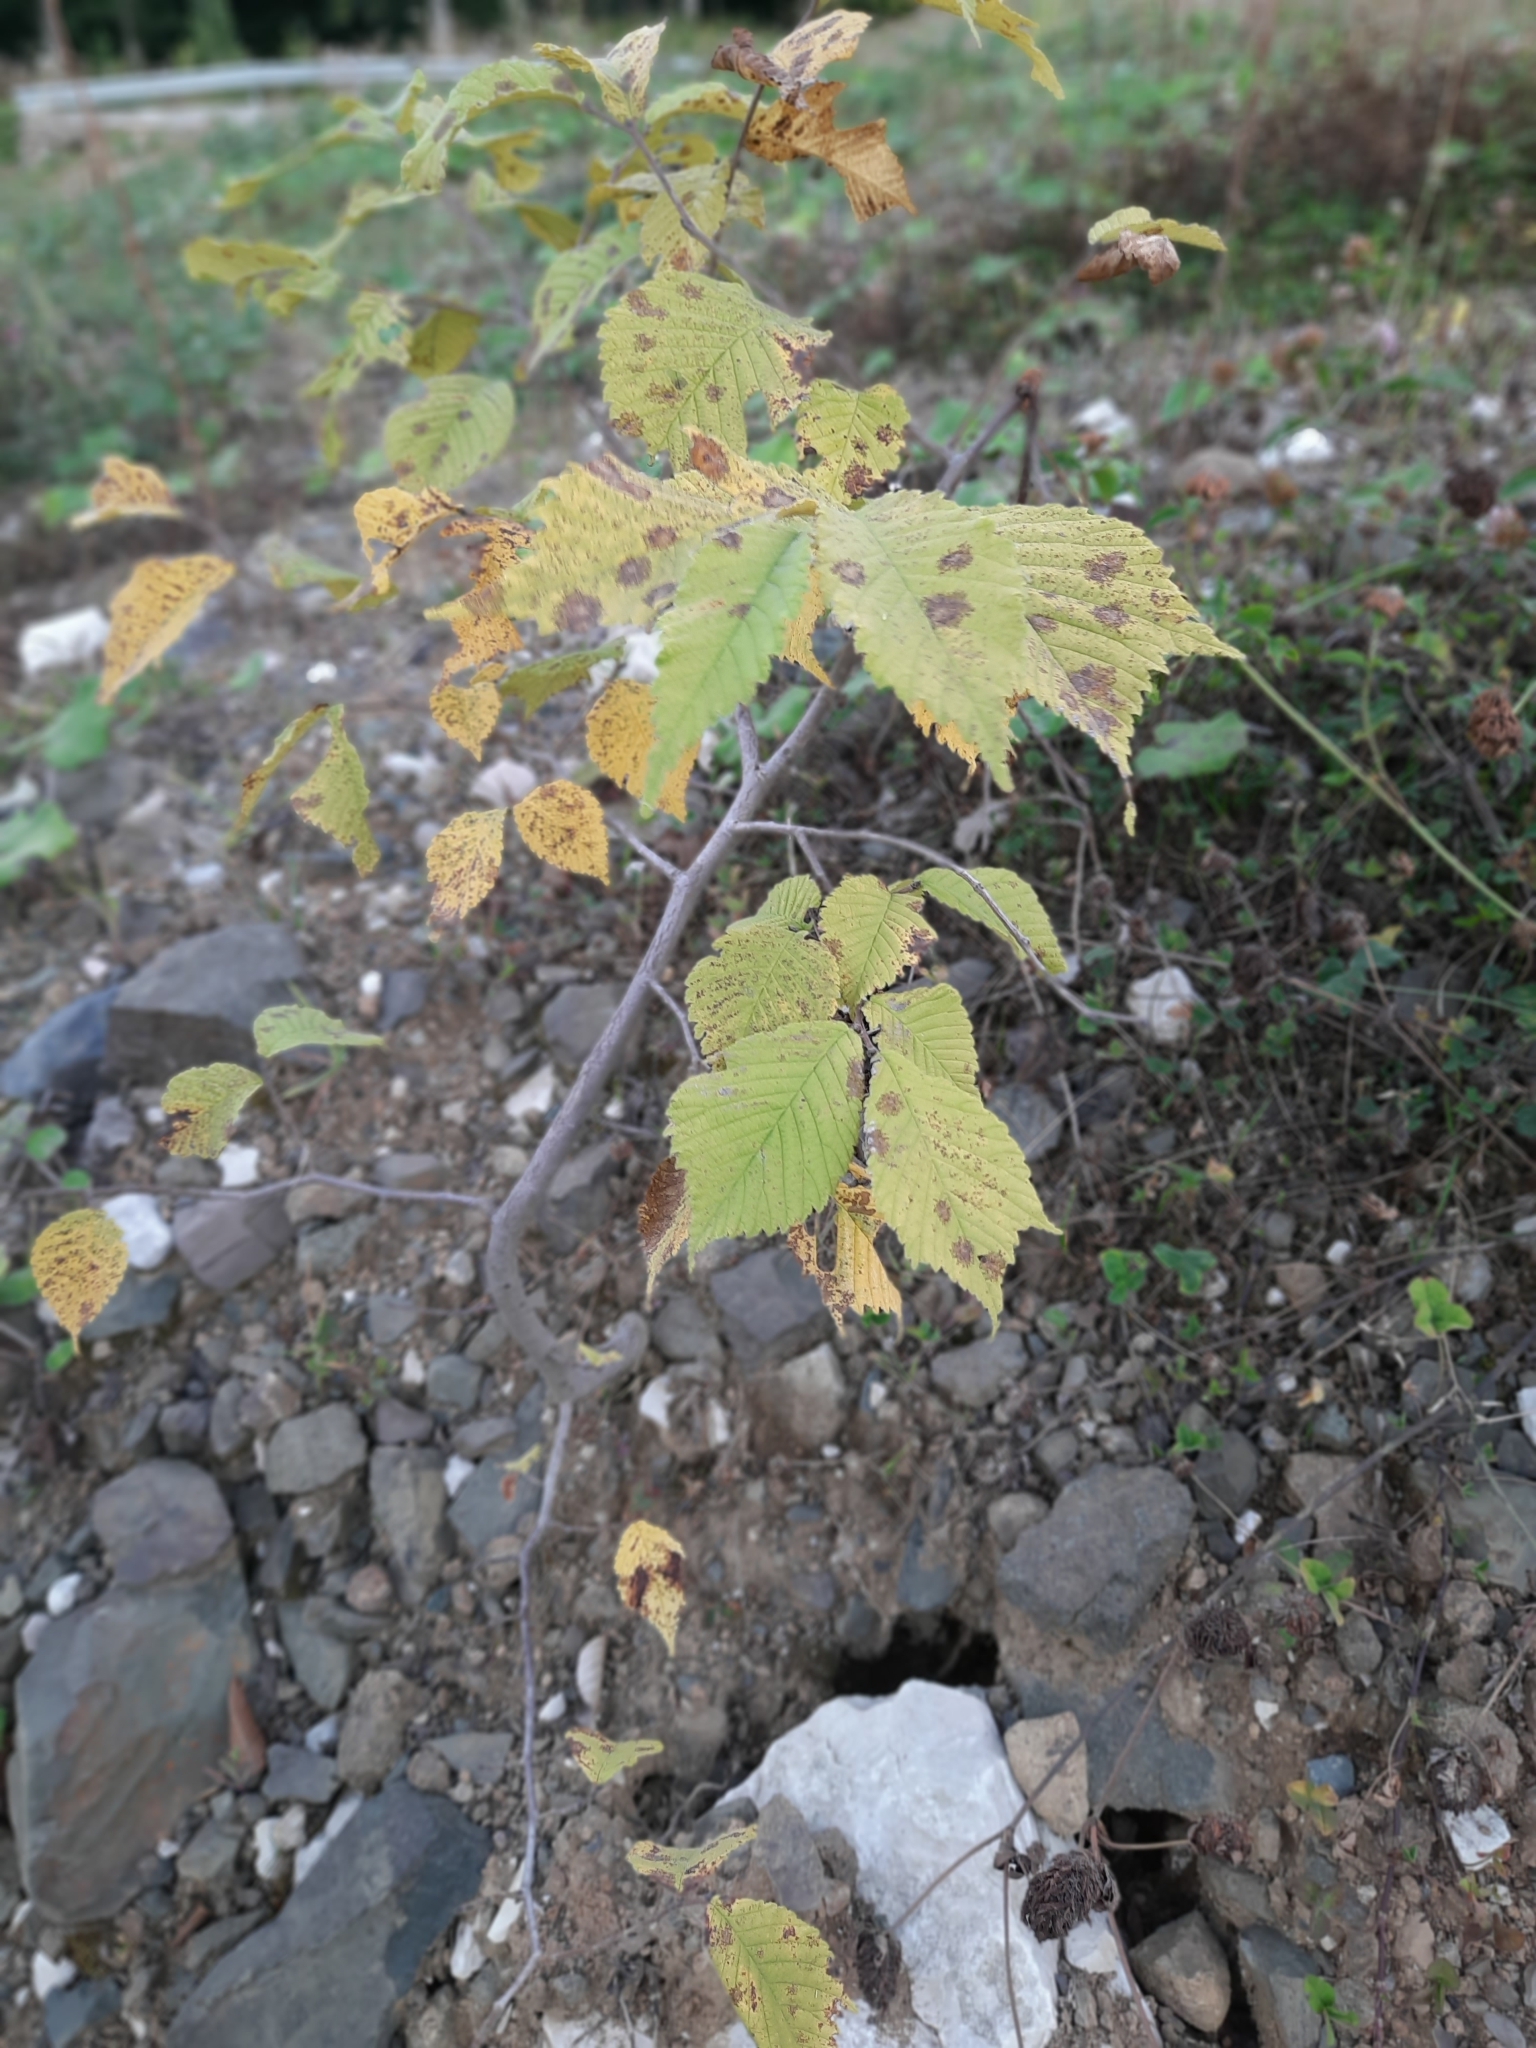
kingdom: Plantae
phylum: Tracheophyta
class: Magnoliopsida
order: Rosales
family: Ulmaceae
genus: Ulmus
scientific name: Ulmus glabra
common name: Wych elm
